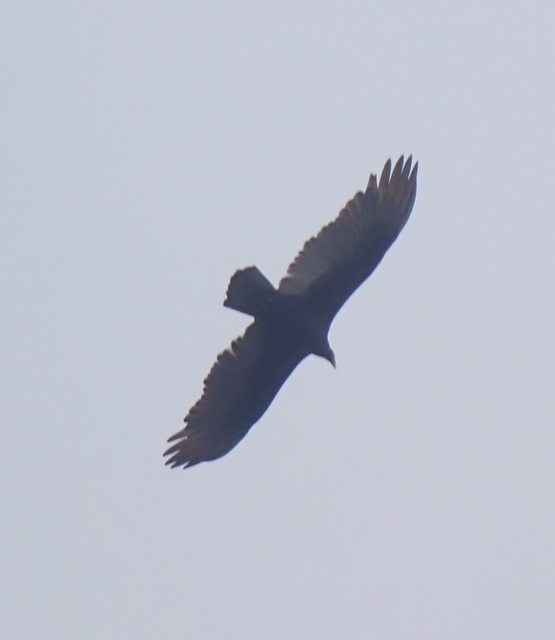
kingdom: Animalia
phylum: Chordata
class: Aves
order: Accipitriformes
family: Cathartidae
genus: Cathartes
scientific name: Cathartes aura
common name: Turkey vulture
